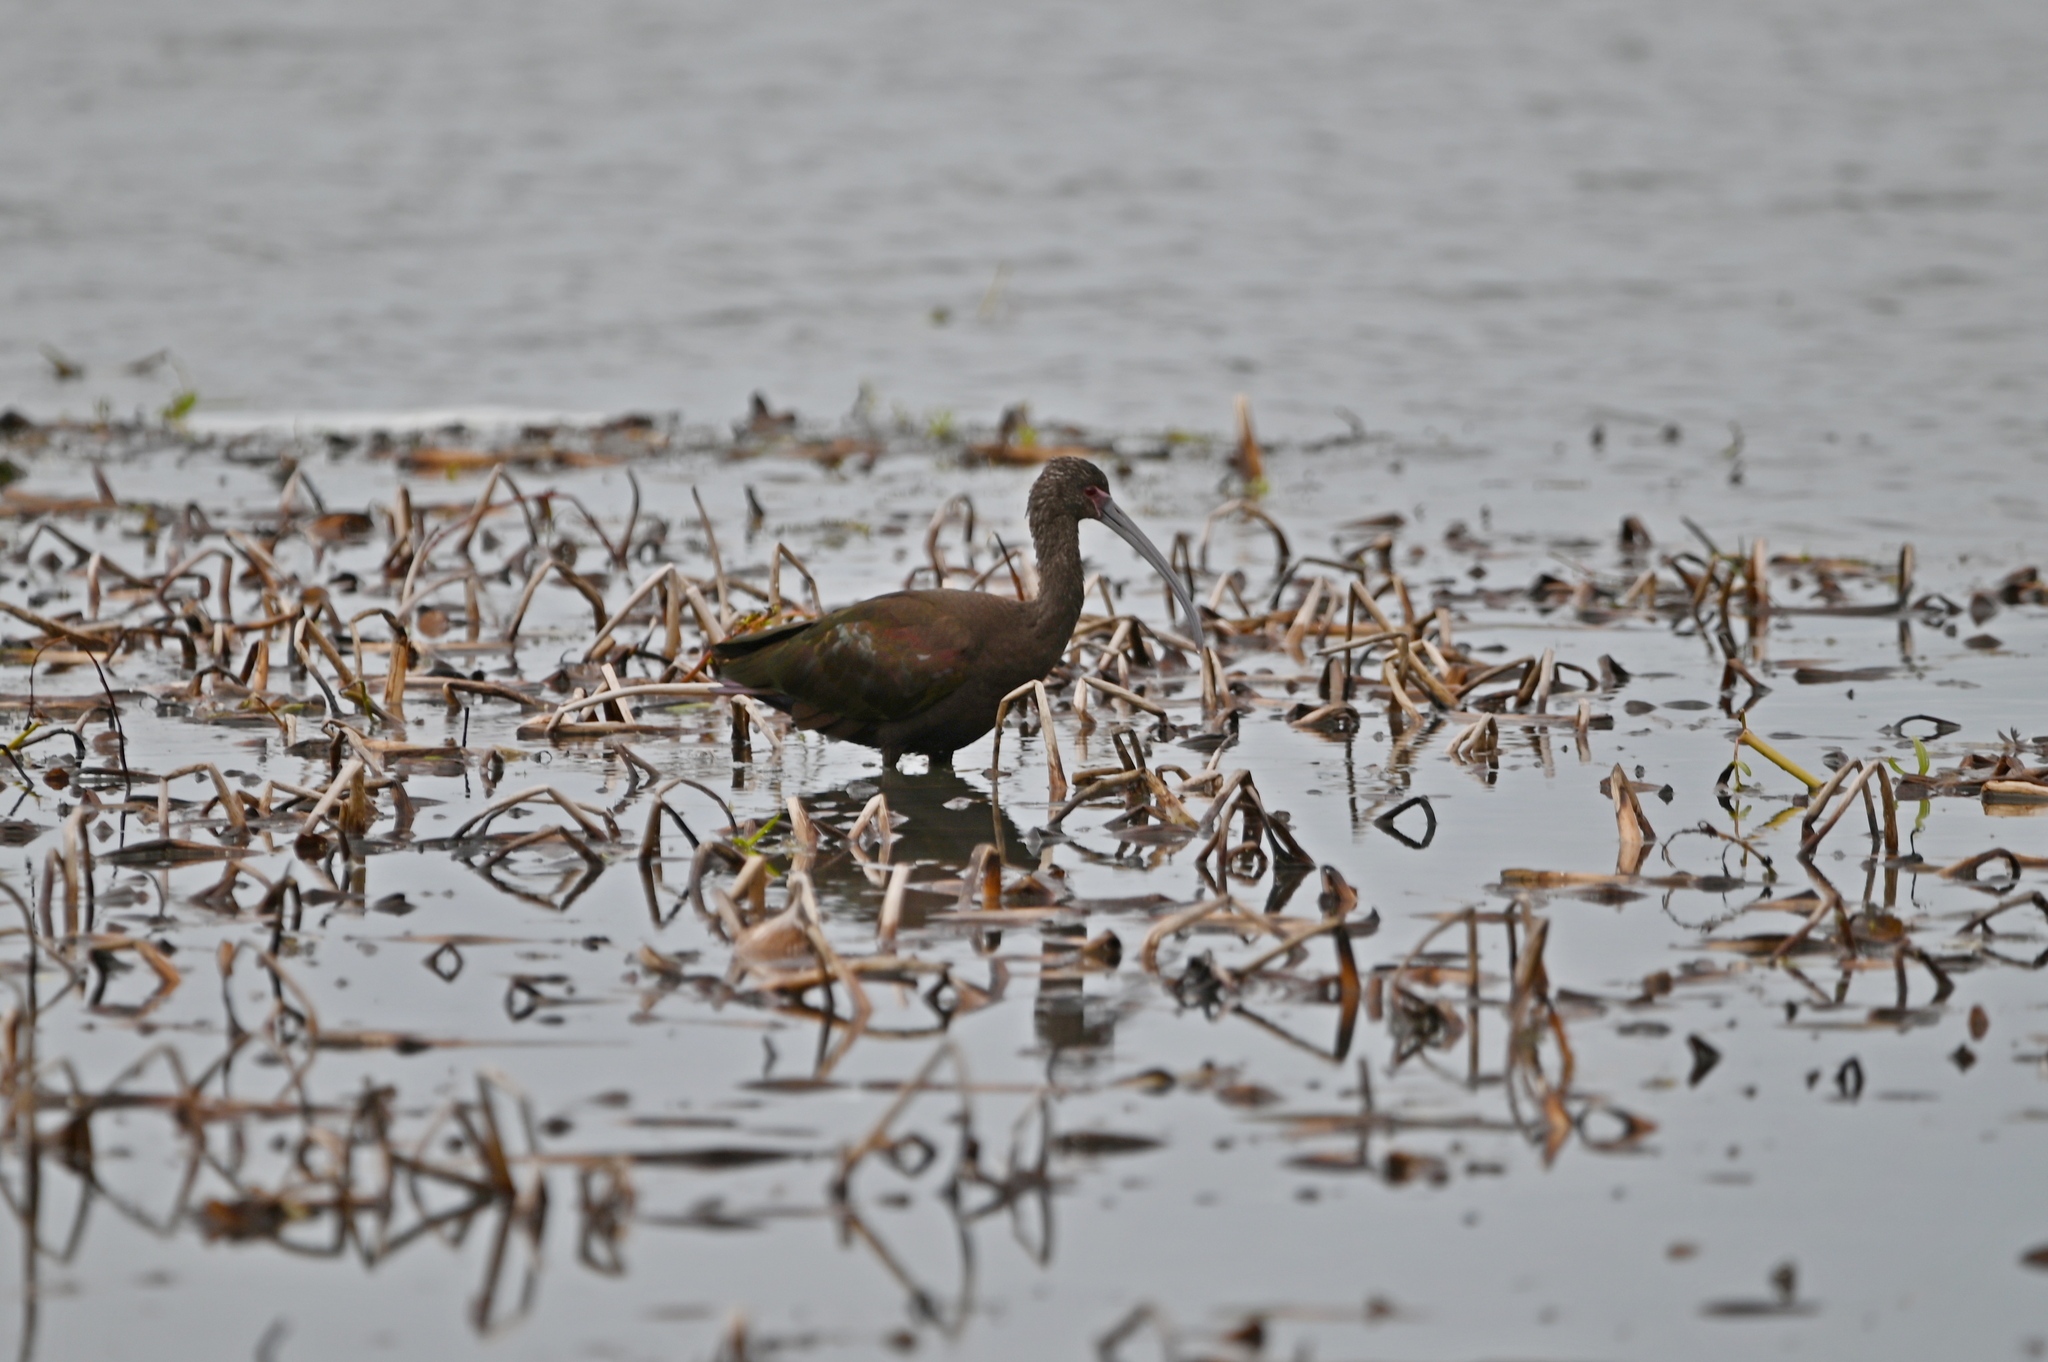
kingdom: Animalia
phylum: Chordata
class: Aves
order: Pelecaniformes
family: Threskiornithidae
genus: Plegadis
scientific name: Plegadis chihi
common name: White-faced ibis
